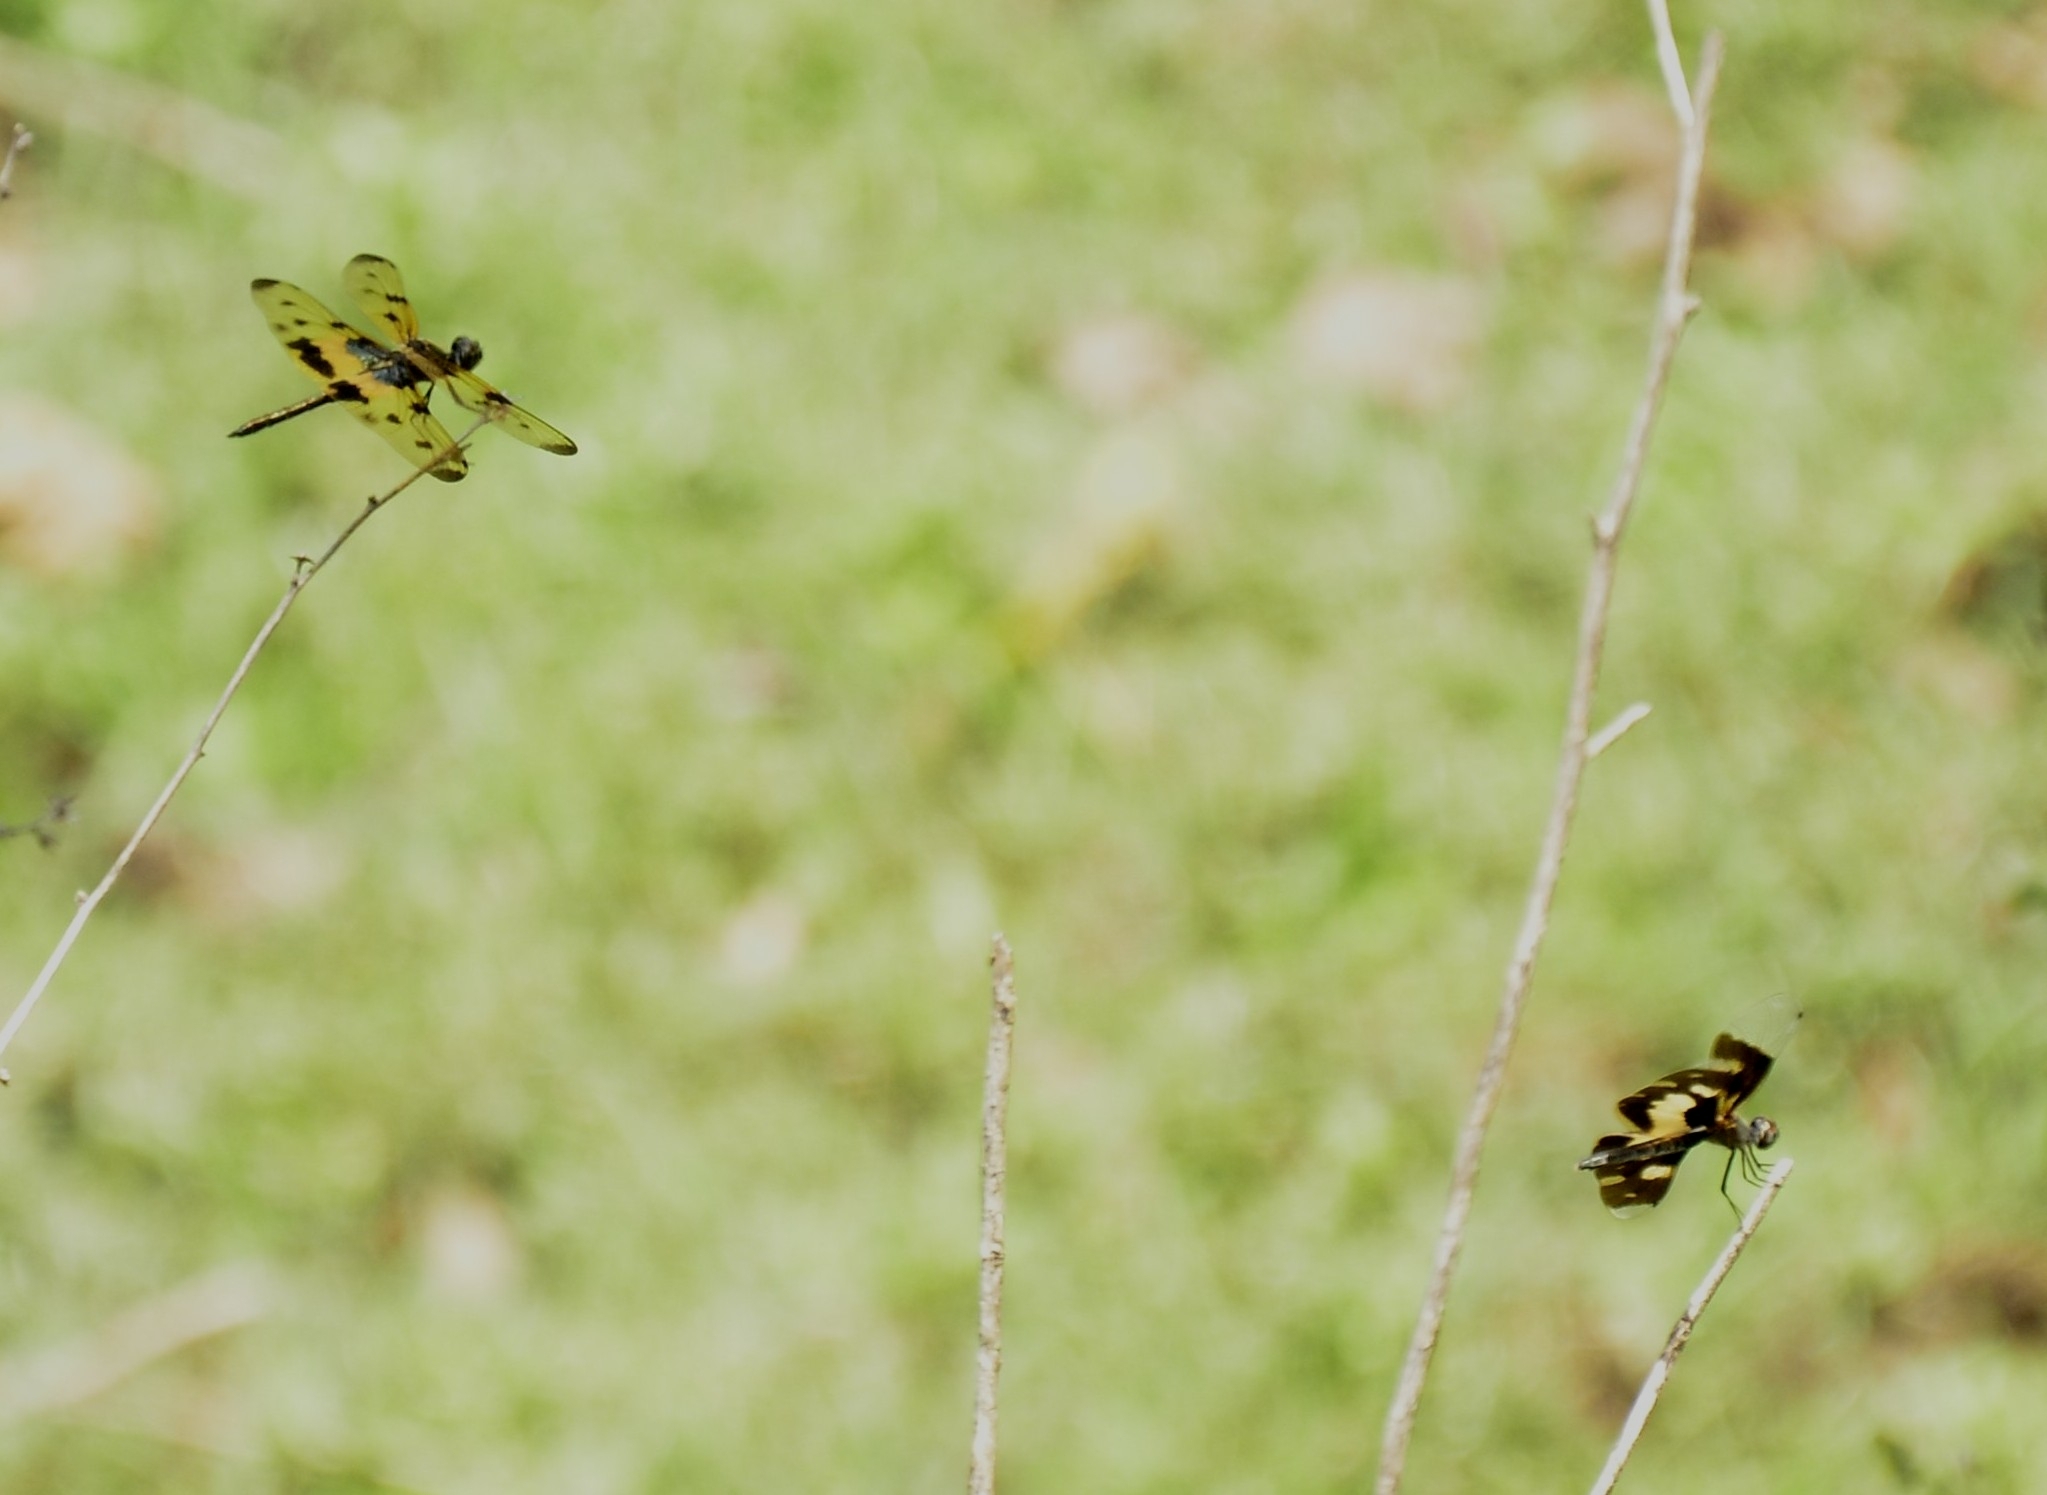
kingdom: Animalia
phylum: Arthropoda
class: Insecta
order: Odonata
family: Libellulidae
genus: Rhyothemis
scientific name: Rhyothemis variegata
